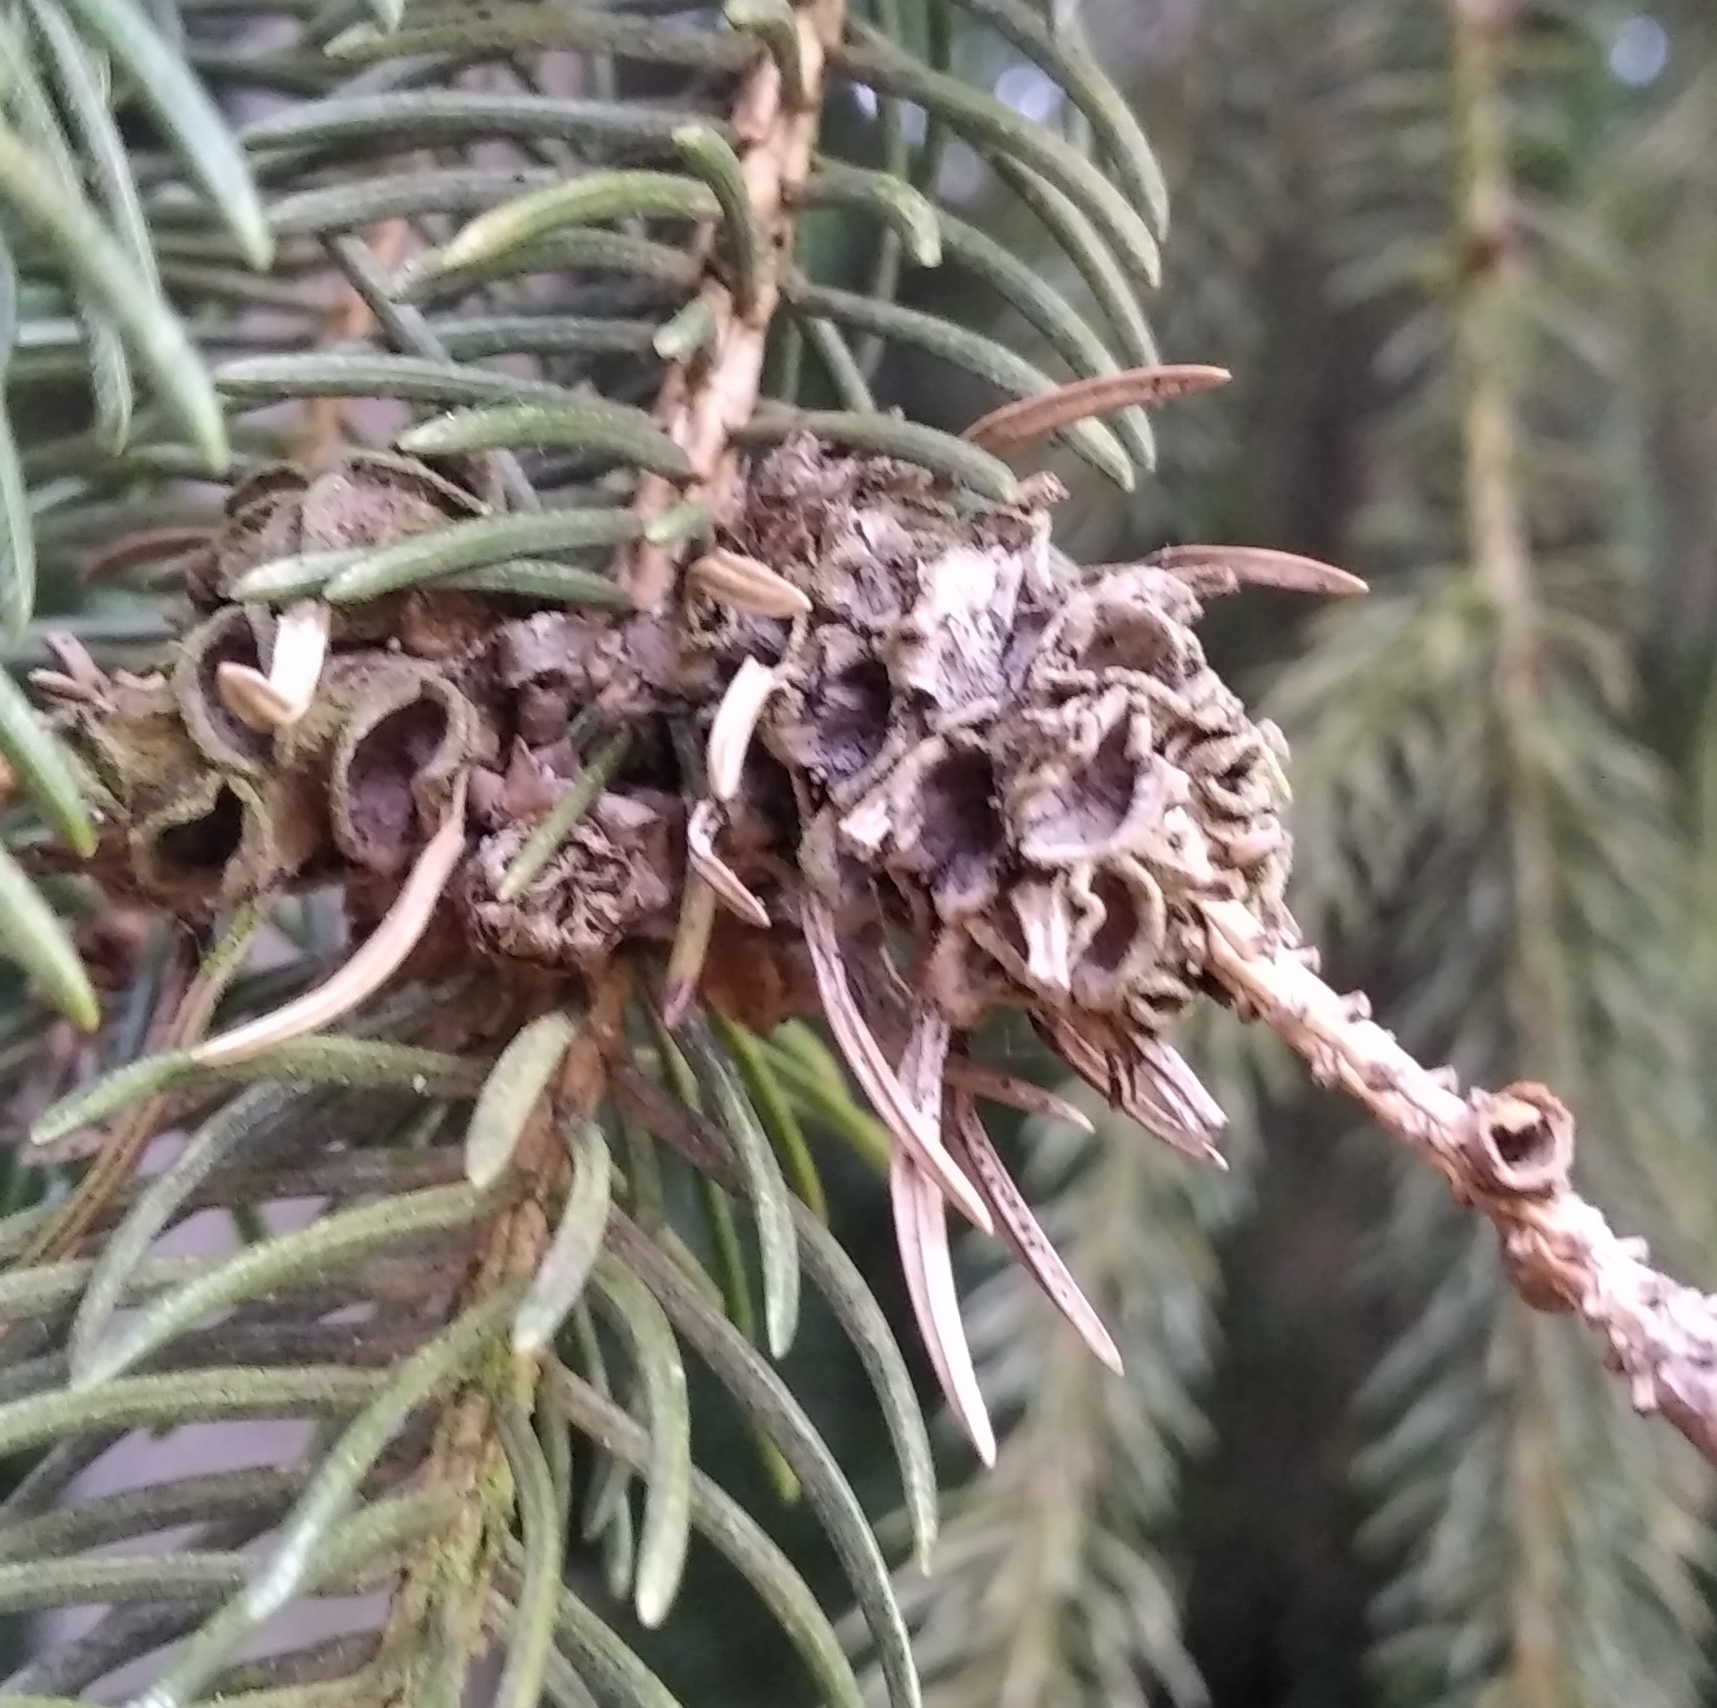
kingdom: Animalia
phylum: Arthropoda
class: Insecta
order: Hemiptera
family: Adelgidae
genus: Adelges
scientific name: Adelges abietis
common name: Eastern spruce gall adelgid
